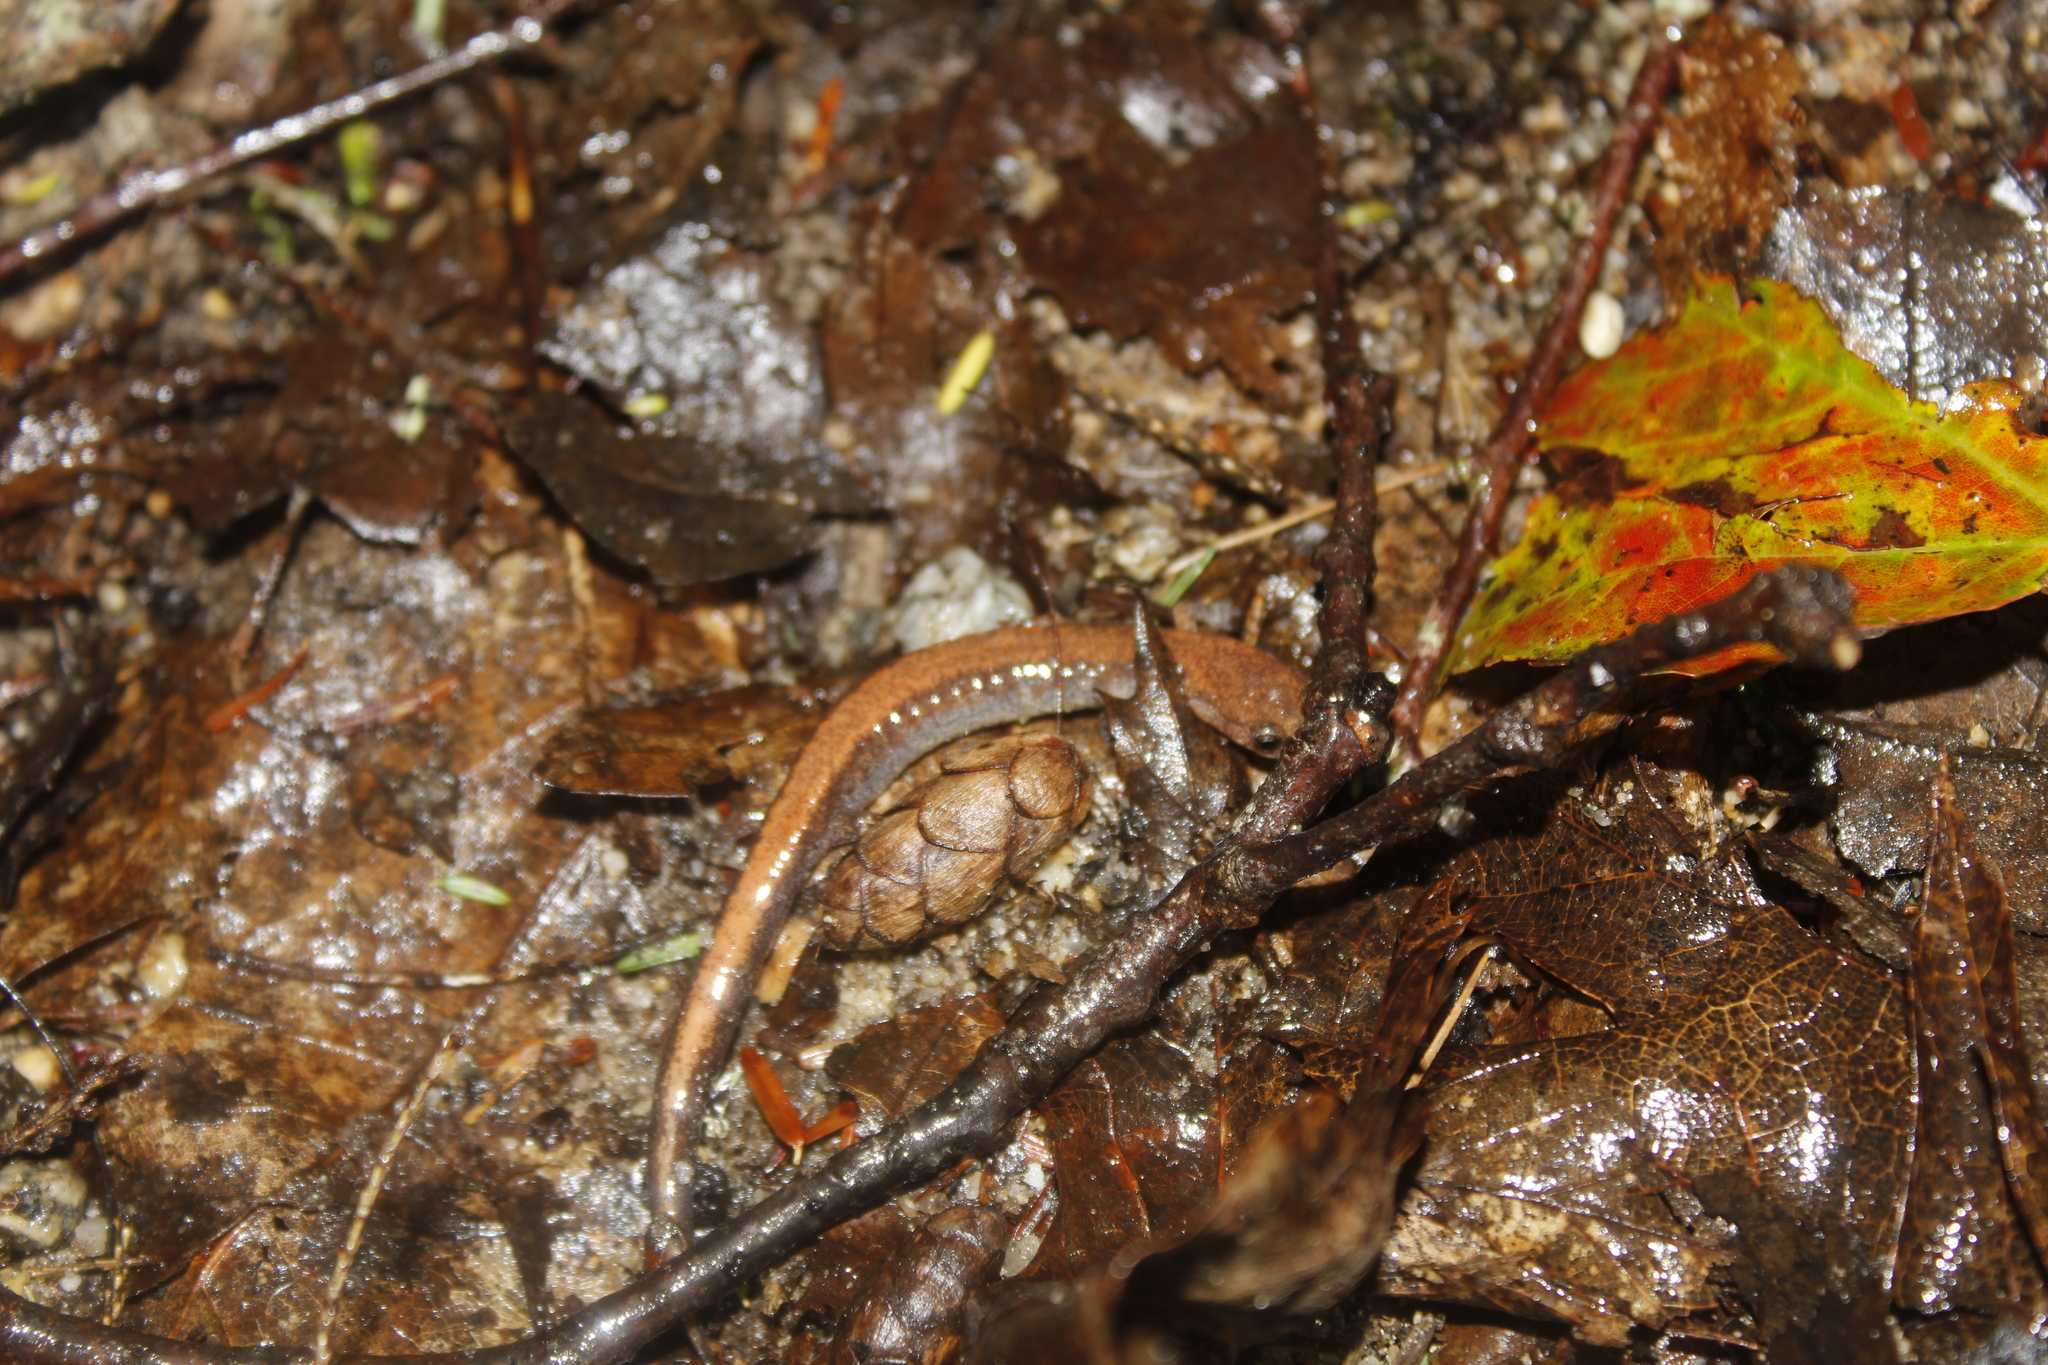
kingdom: Animalia
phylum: Chordata
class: Amphibia
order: Caudata
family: Plethodontidae
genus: Plethodon
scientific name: Plethodon cinereus
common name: Redback salamander
